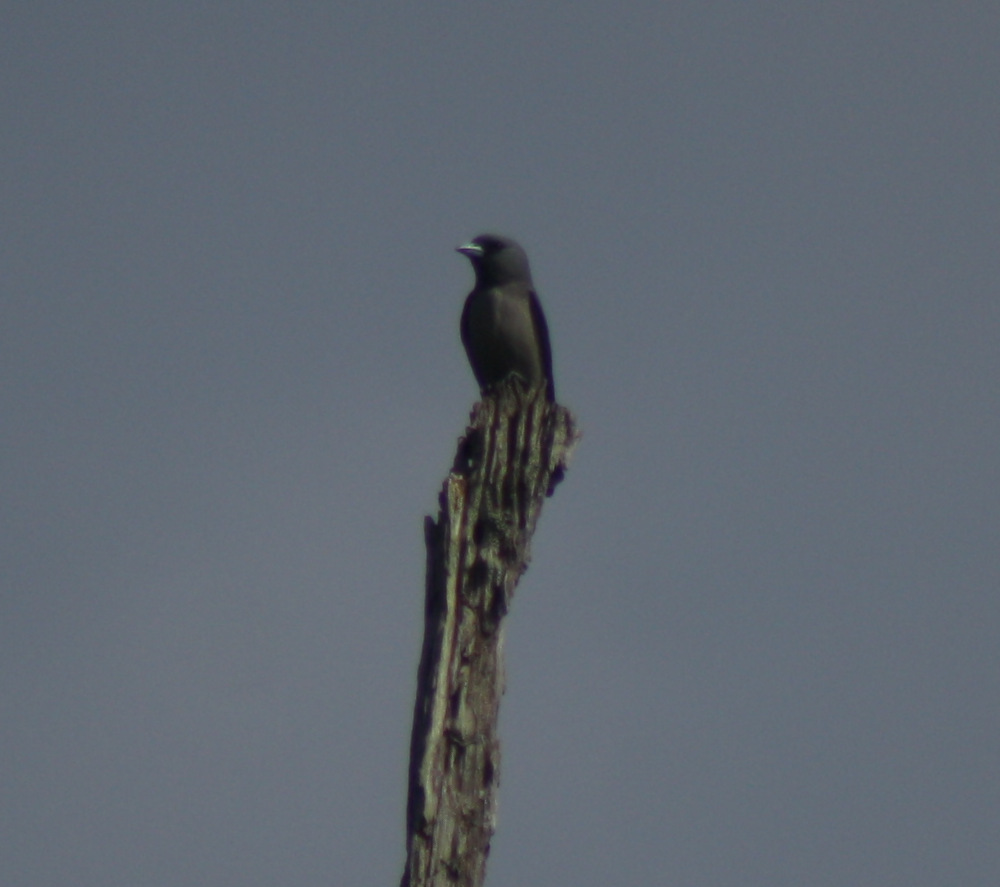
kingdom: Animalia
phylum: Chordata
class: Aves
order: Passeriformes
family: Artamidae
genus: Artamus
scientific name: Artamus fuscus
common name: Ashy woodswallow
